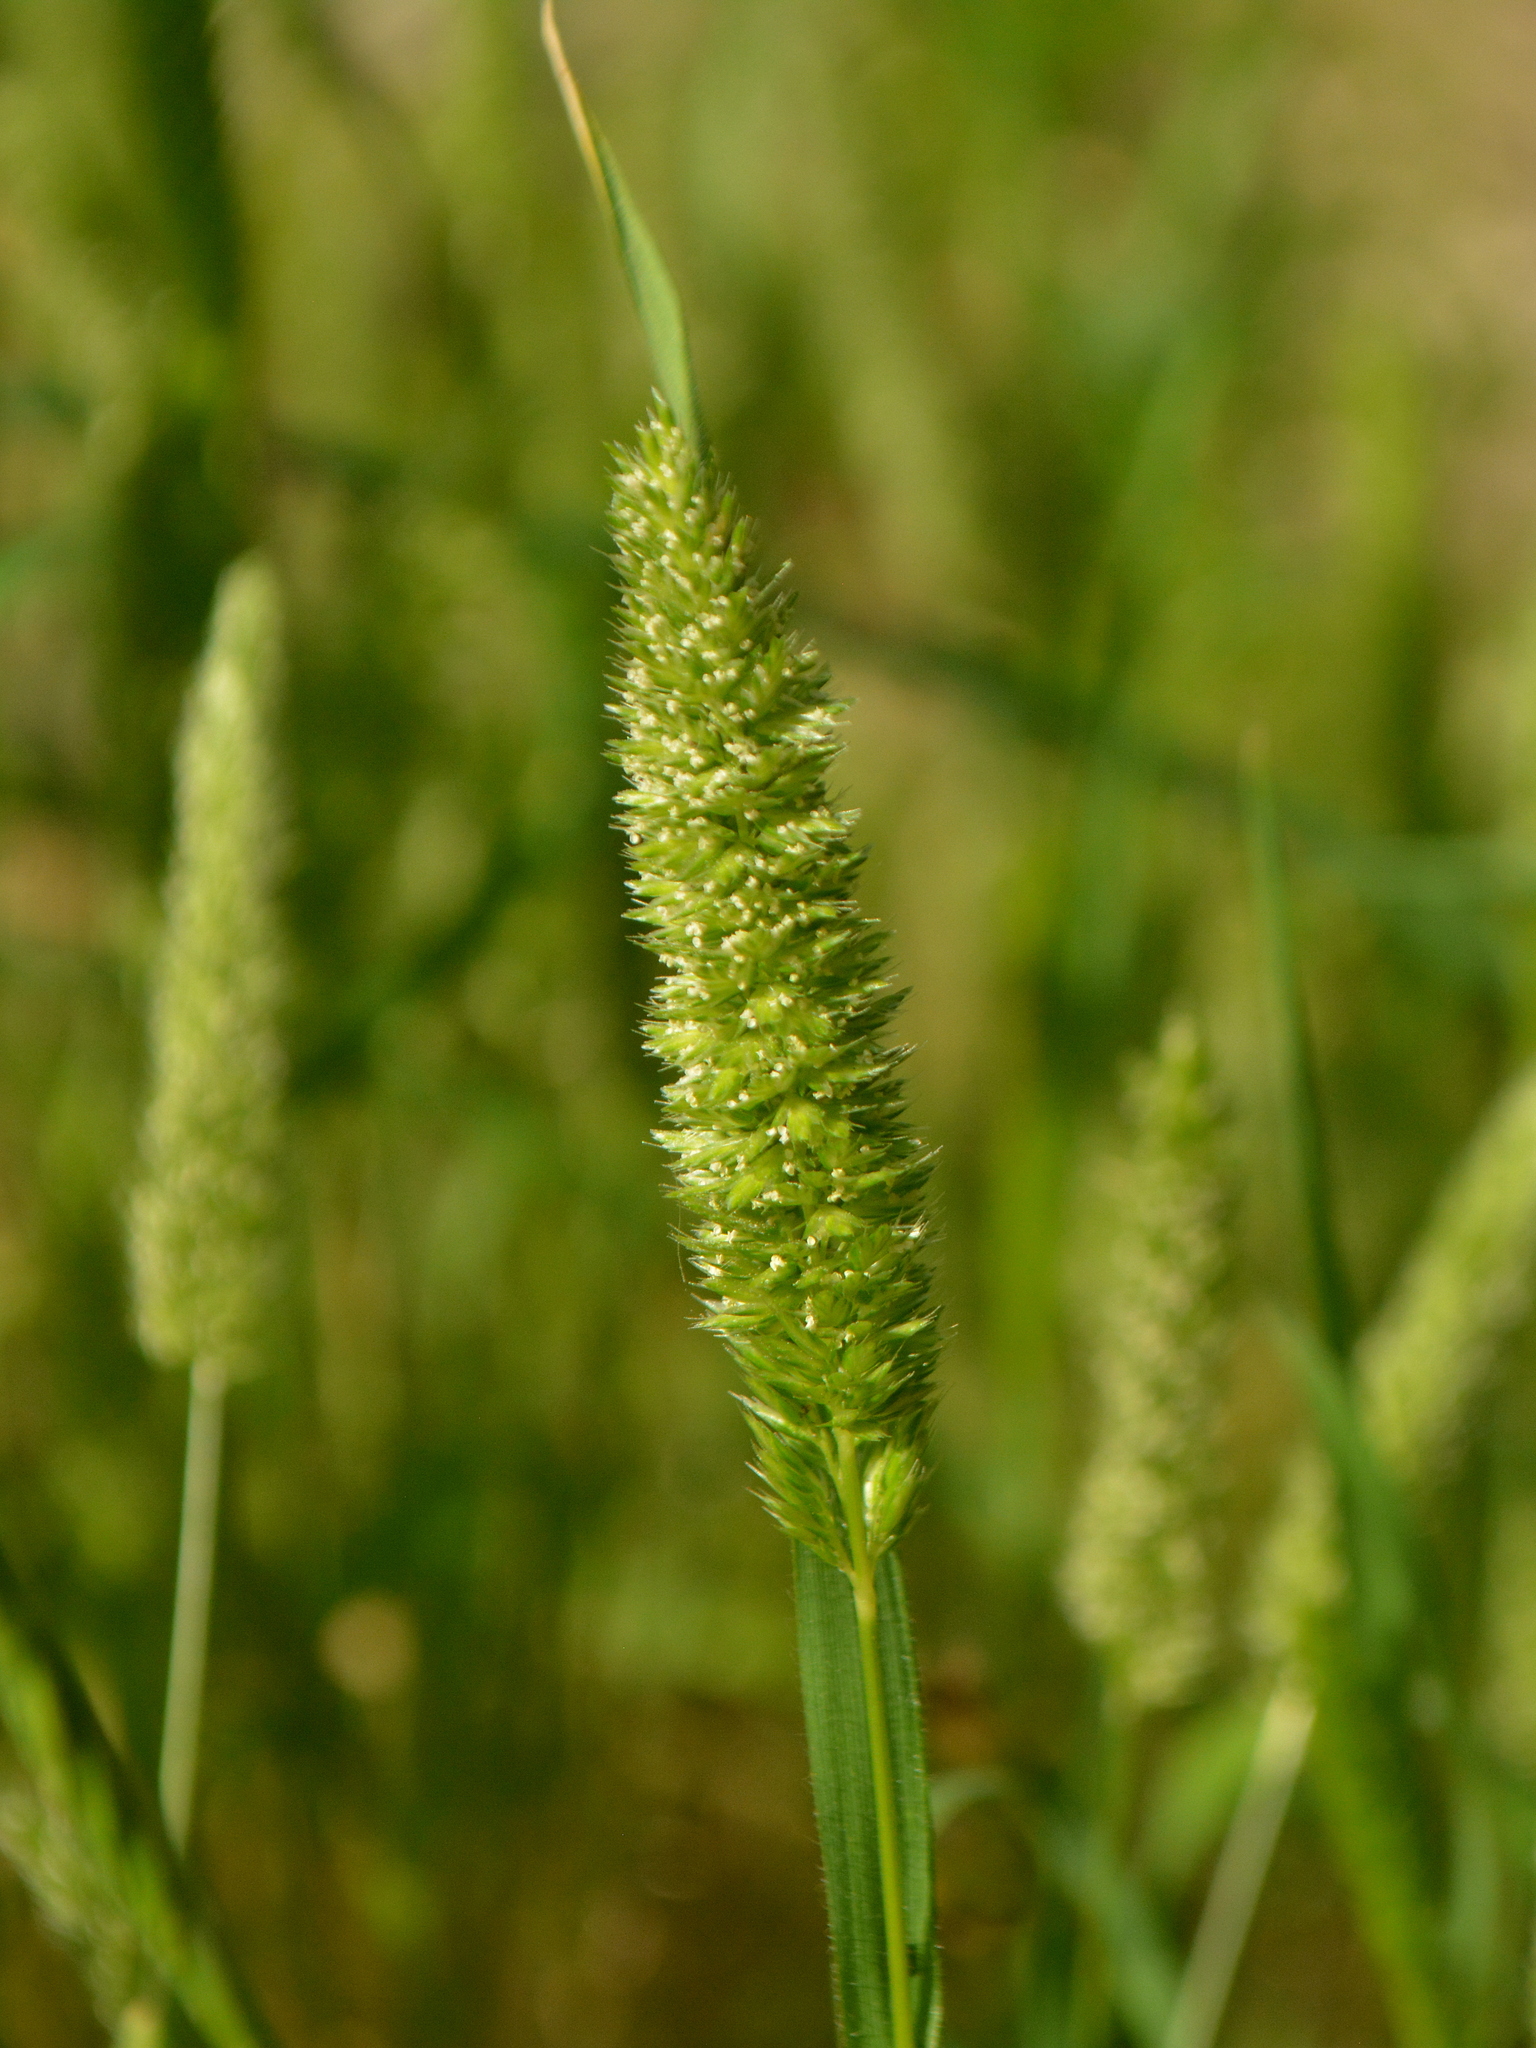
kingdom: Plantae
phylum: Tracheophyta
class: Liliopsida
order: Poales
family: Poaceae
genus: Rostraria
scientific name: Rostraria cristata
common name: Mediterranean hair-grass
